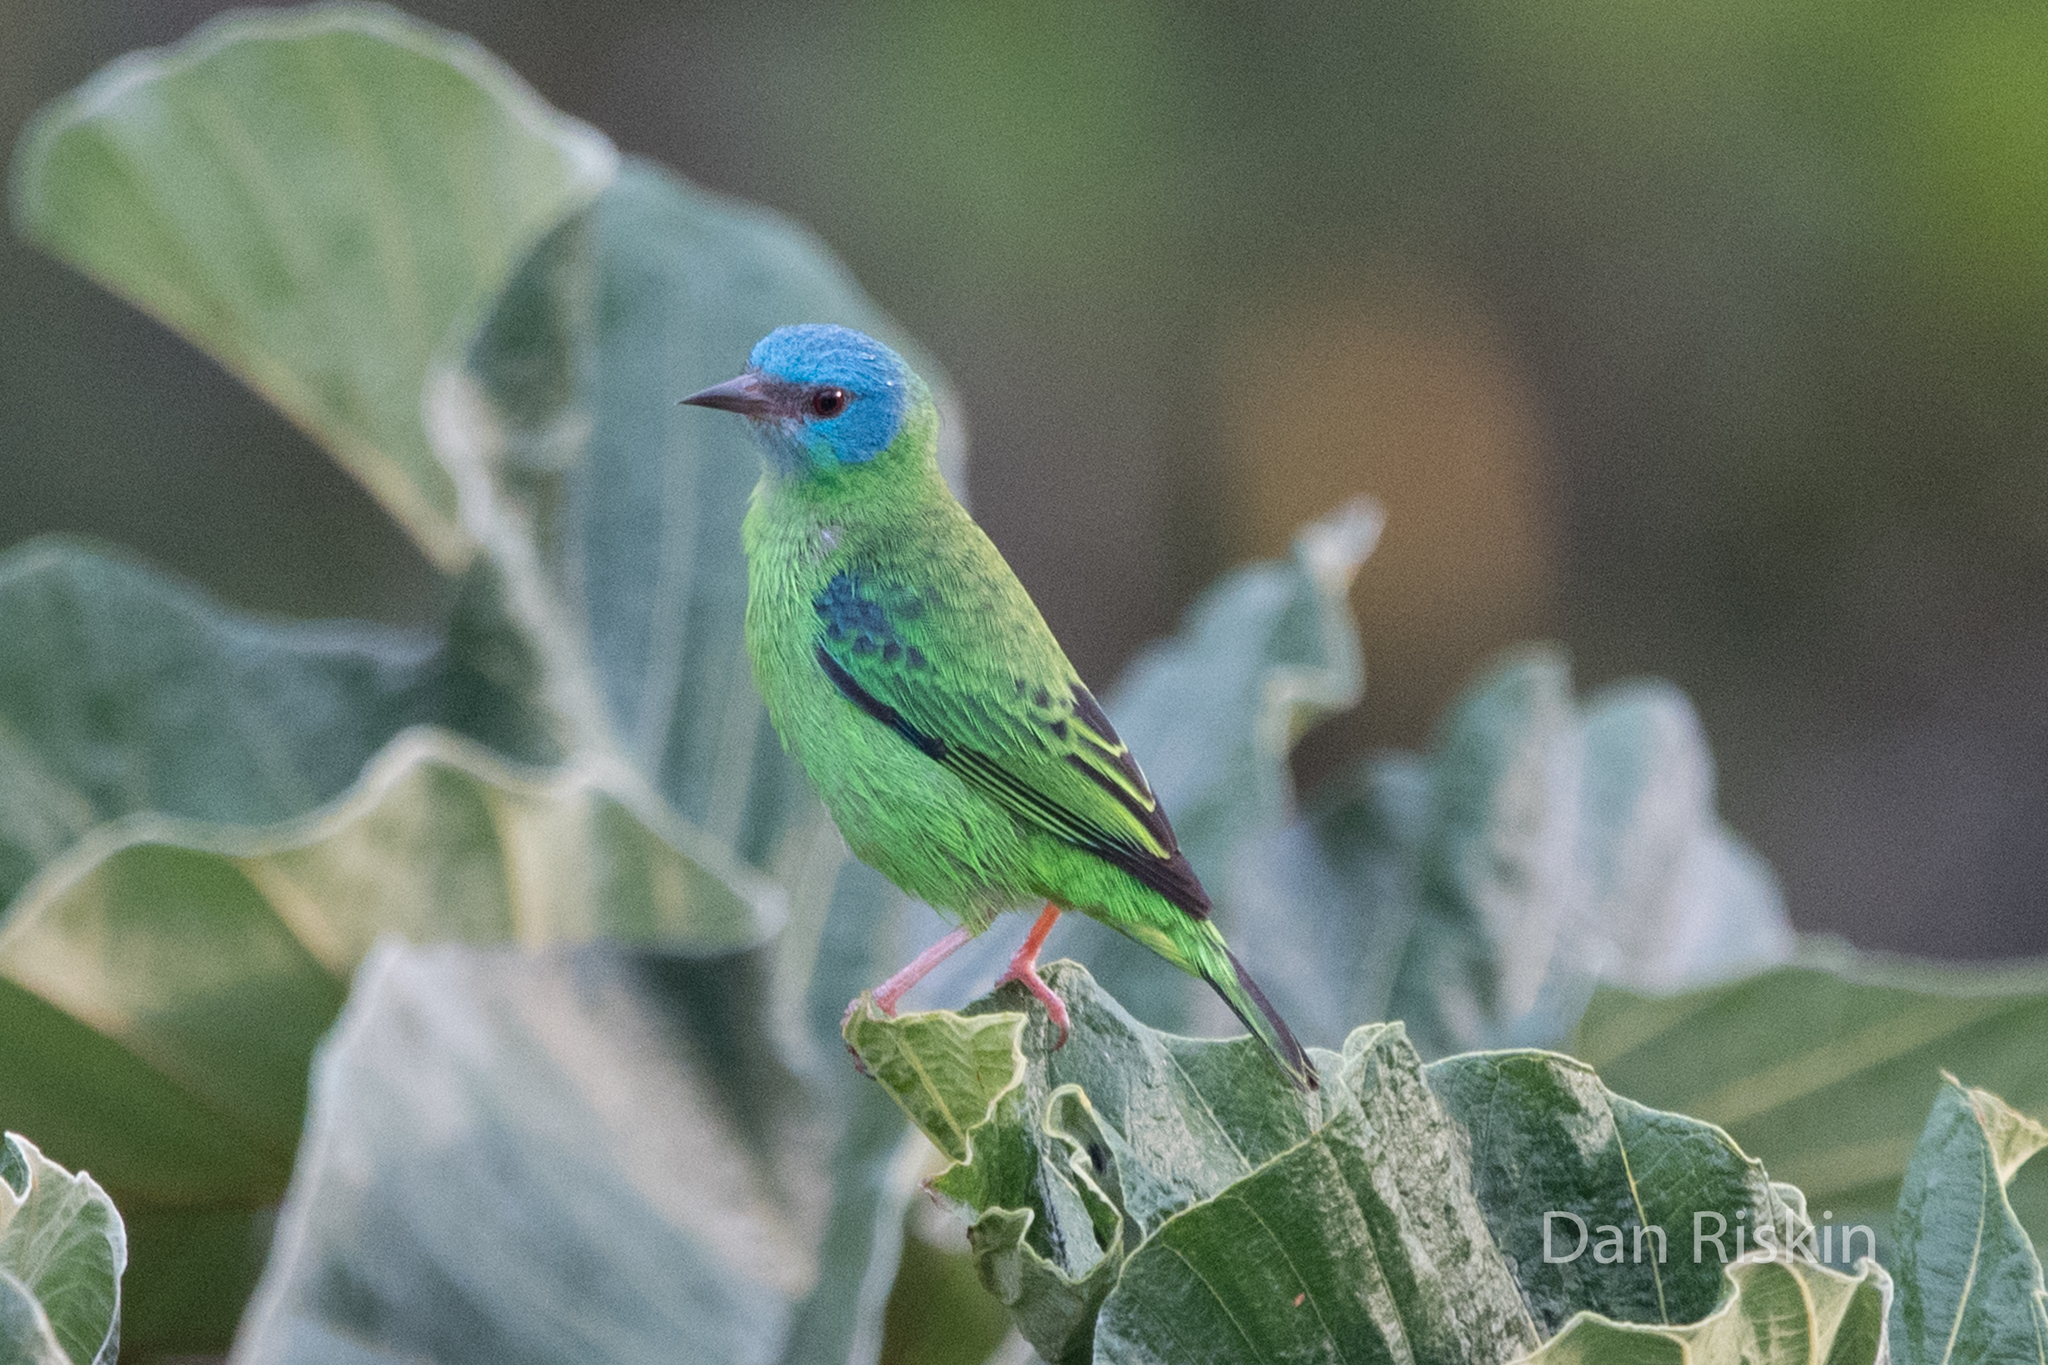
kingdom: Animalia
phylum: Chordata
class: Aves
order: Passeriformes
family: Thraupidae
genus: Dacnis
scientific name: Dacnis cayana
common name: Blue dacnis
